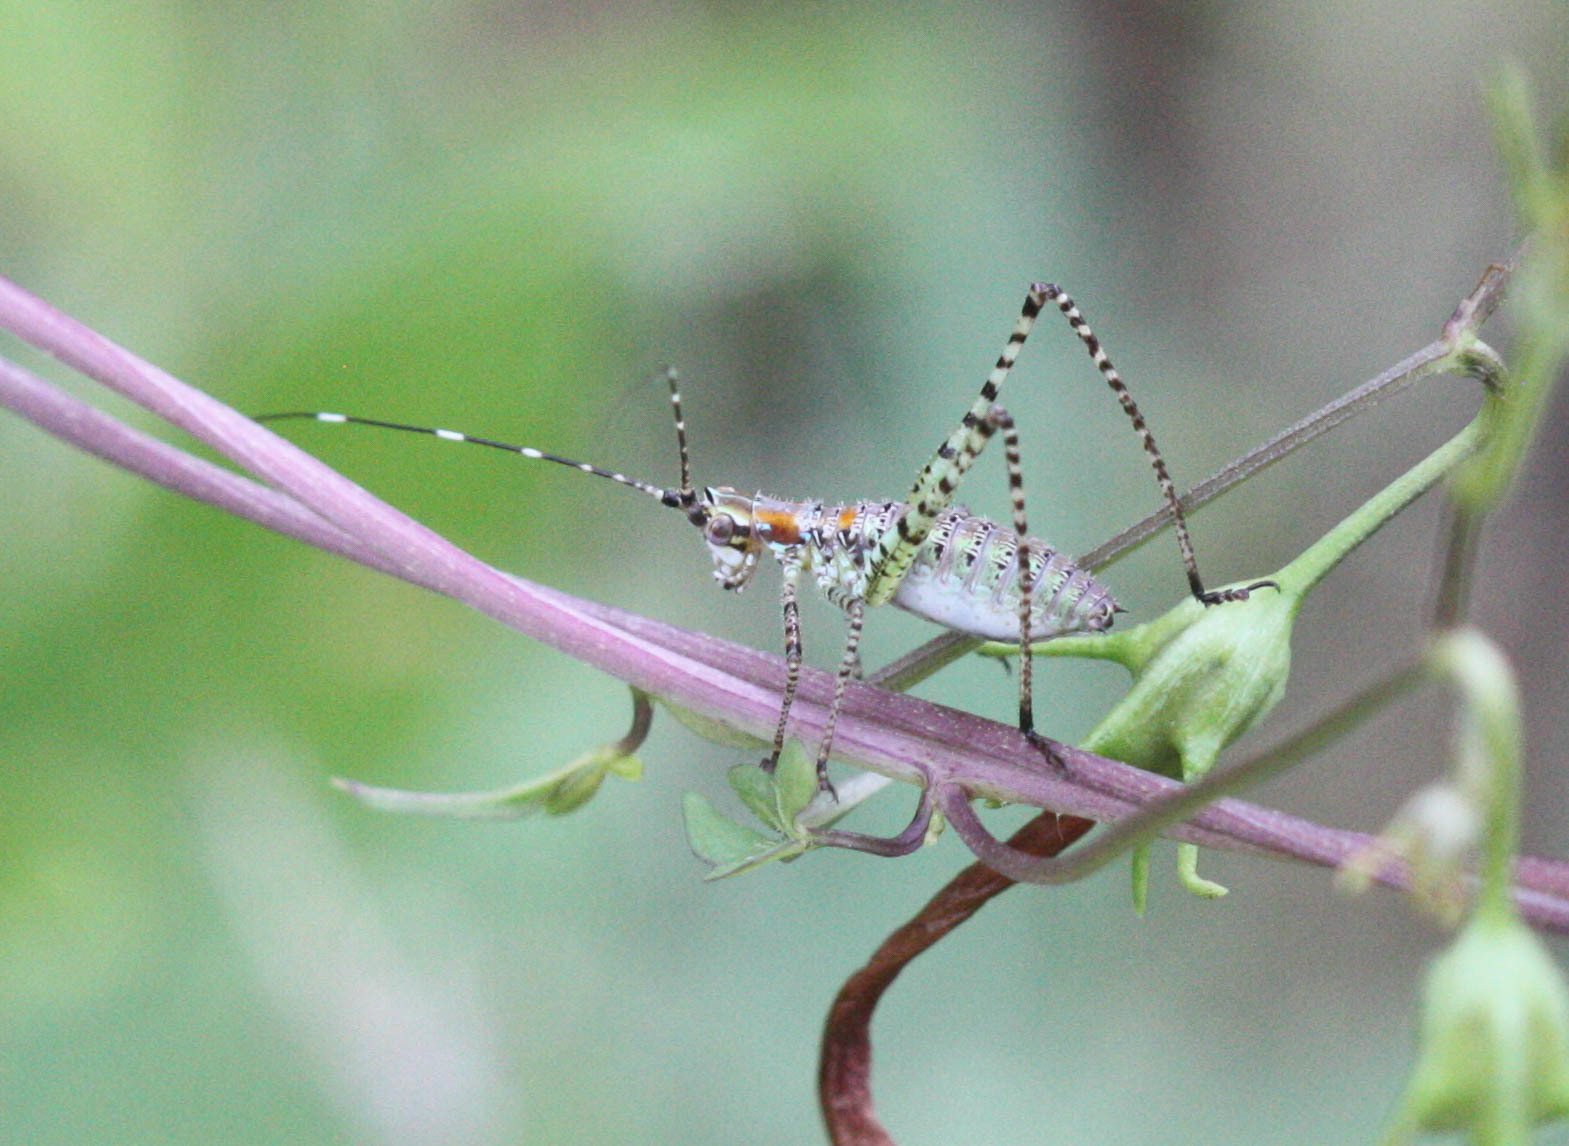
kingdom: Animalia
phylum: Arthropoda
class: Insecta
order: Orthoptera
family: Tettigoniidae
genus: Scudderia
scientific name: Scudderia mexicana
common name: Mexican bush katydid
